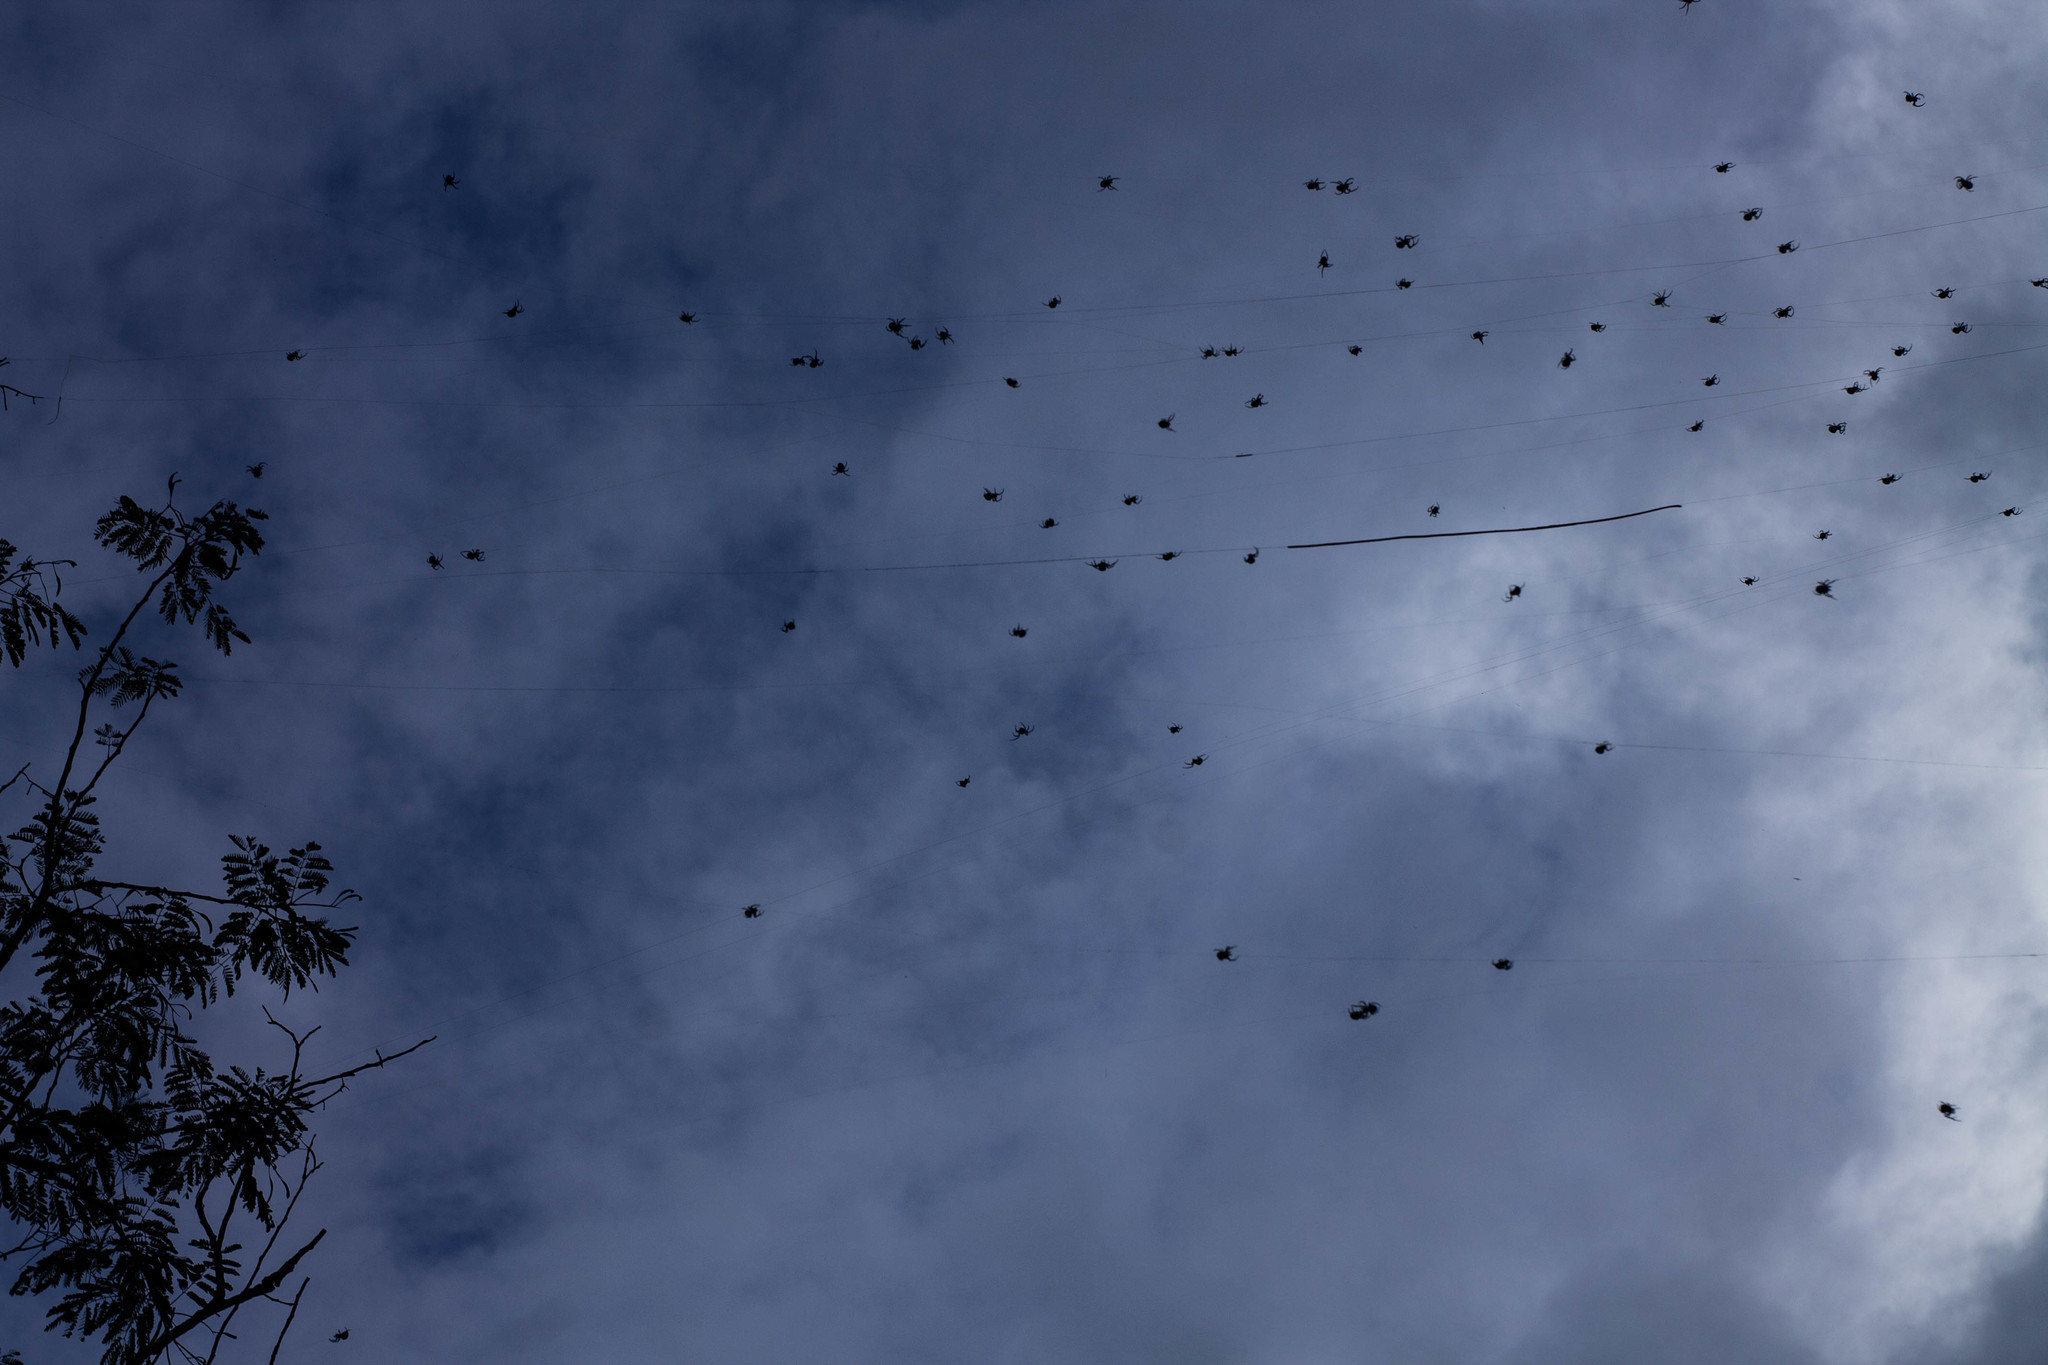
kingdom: Animalia
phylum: Arthropoda
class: Arachnida
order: Araneae
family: Araneidae
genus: Parawixia
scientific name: Parawixia bistriata
